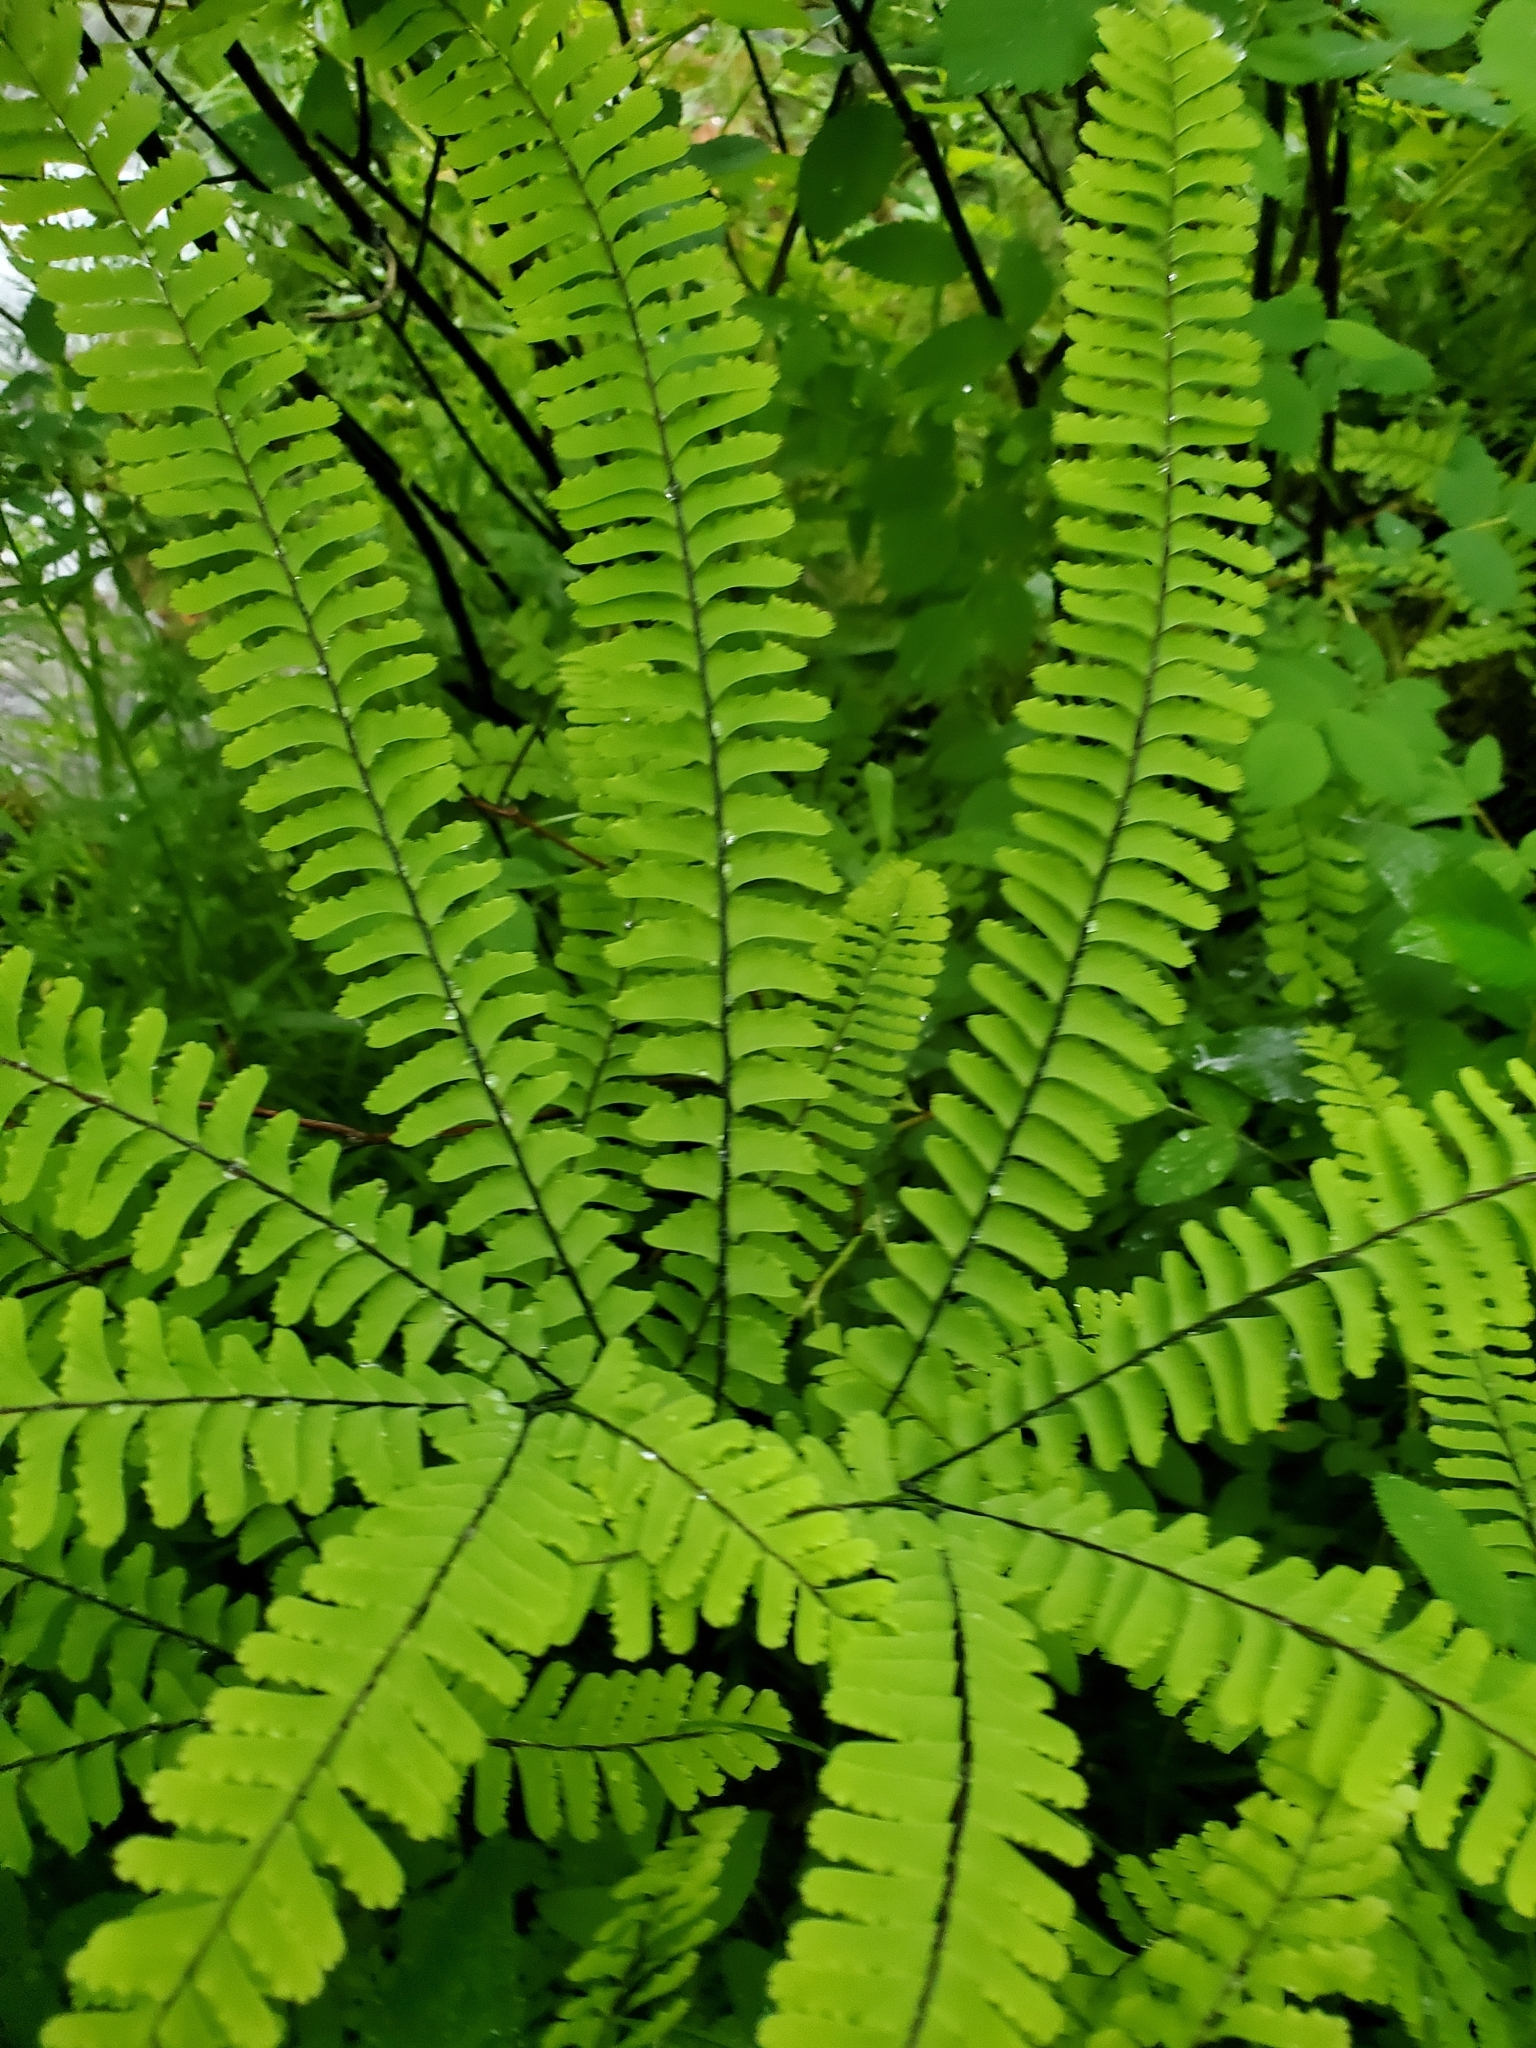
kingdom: Plantae
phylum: Tracheophyta
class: Polypodiopsida
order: Polypodiales
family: Pteridaceae
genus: Adiantum
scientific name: Adiantum aleuticum
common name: Aleutian maidenhair fern
